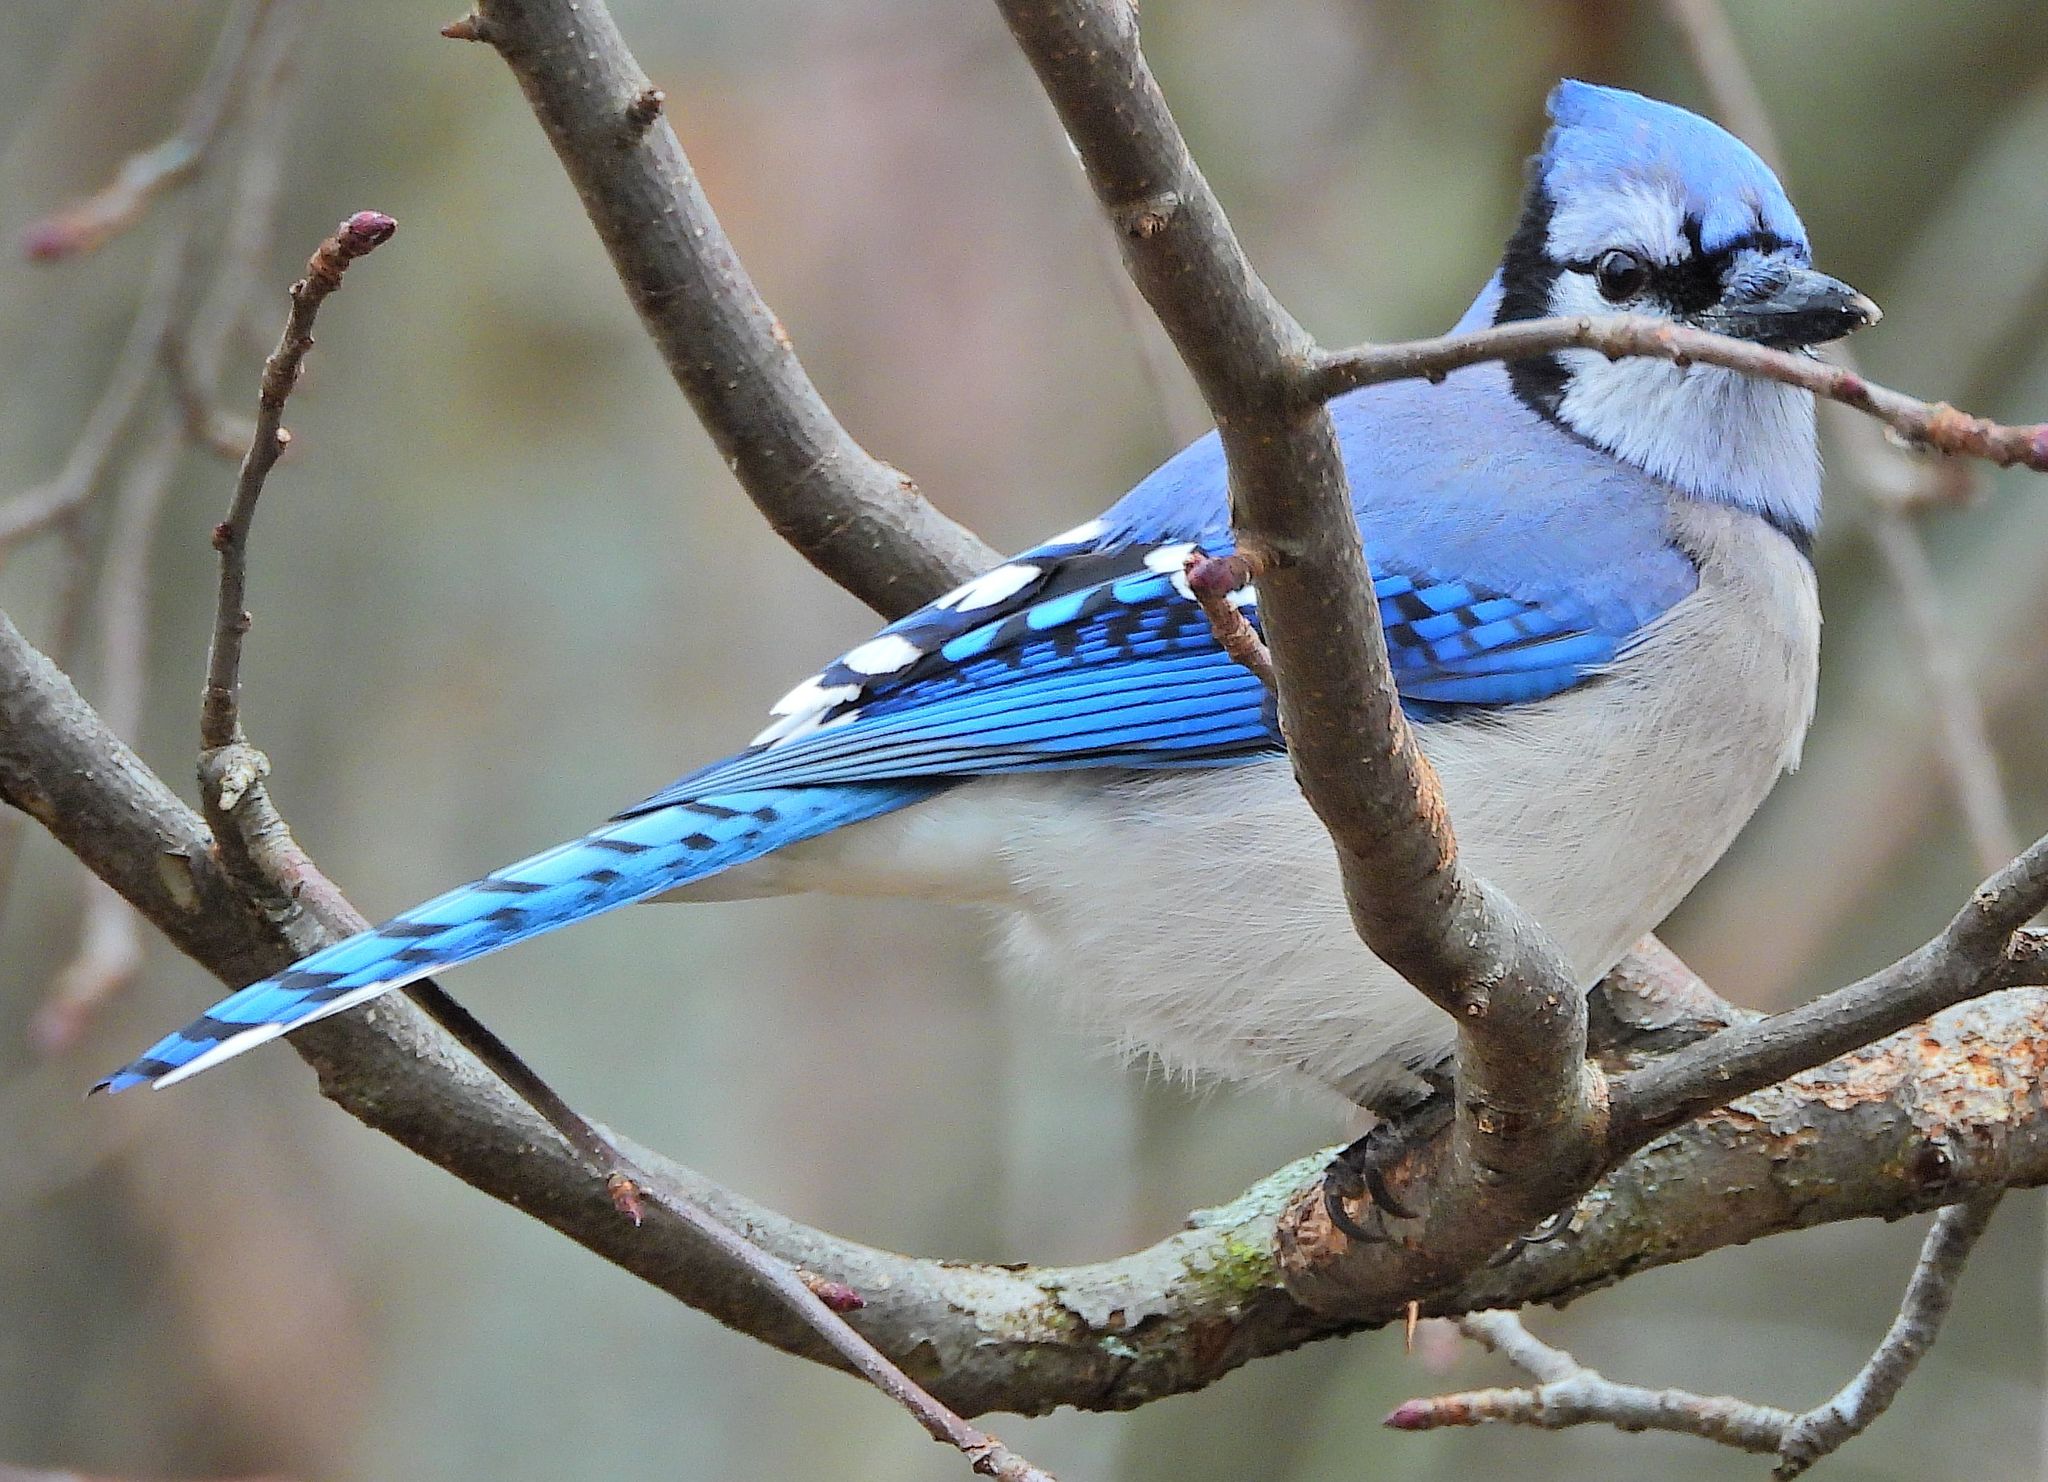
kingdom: Animalia
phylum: Chordata
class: Aves
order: Passeriformes
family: Corvidae
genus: Cyanocitta
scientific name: Cyanocitta cristata
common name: Blue jay
